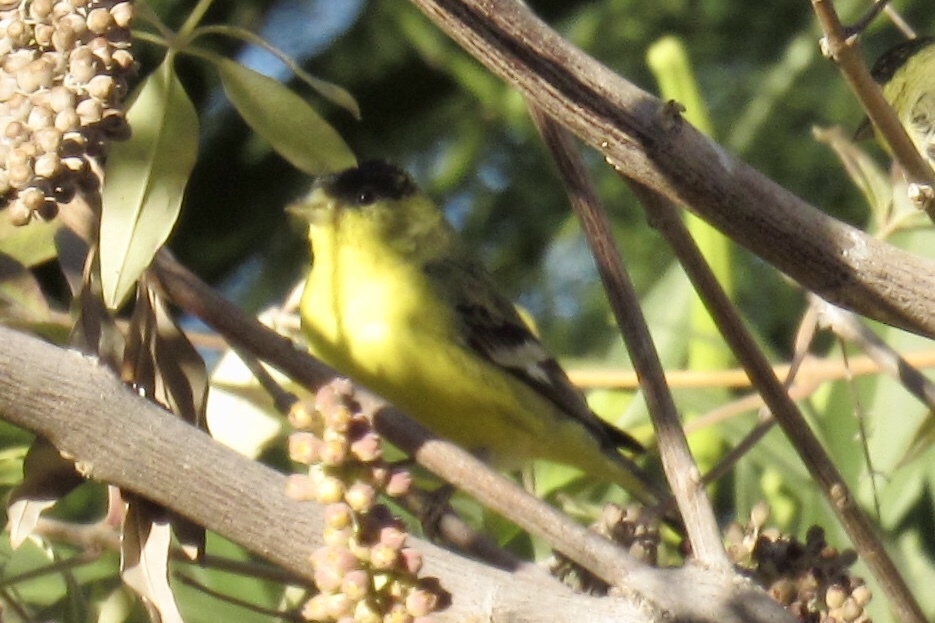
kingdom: Animalia
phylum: Chordata
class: Aves
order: Passeriformes
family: Fringillidae
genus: Spinus
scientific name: Spinus psaltria
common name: Lesser goldfinch
